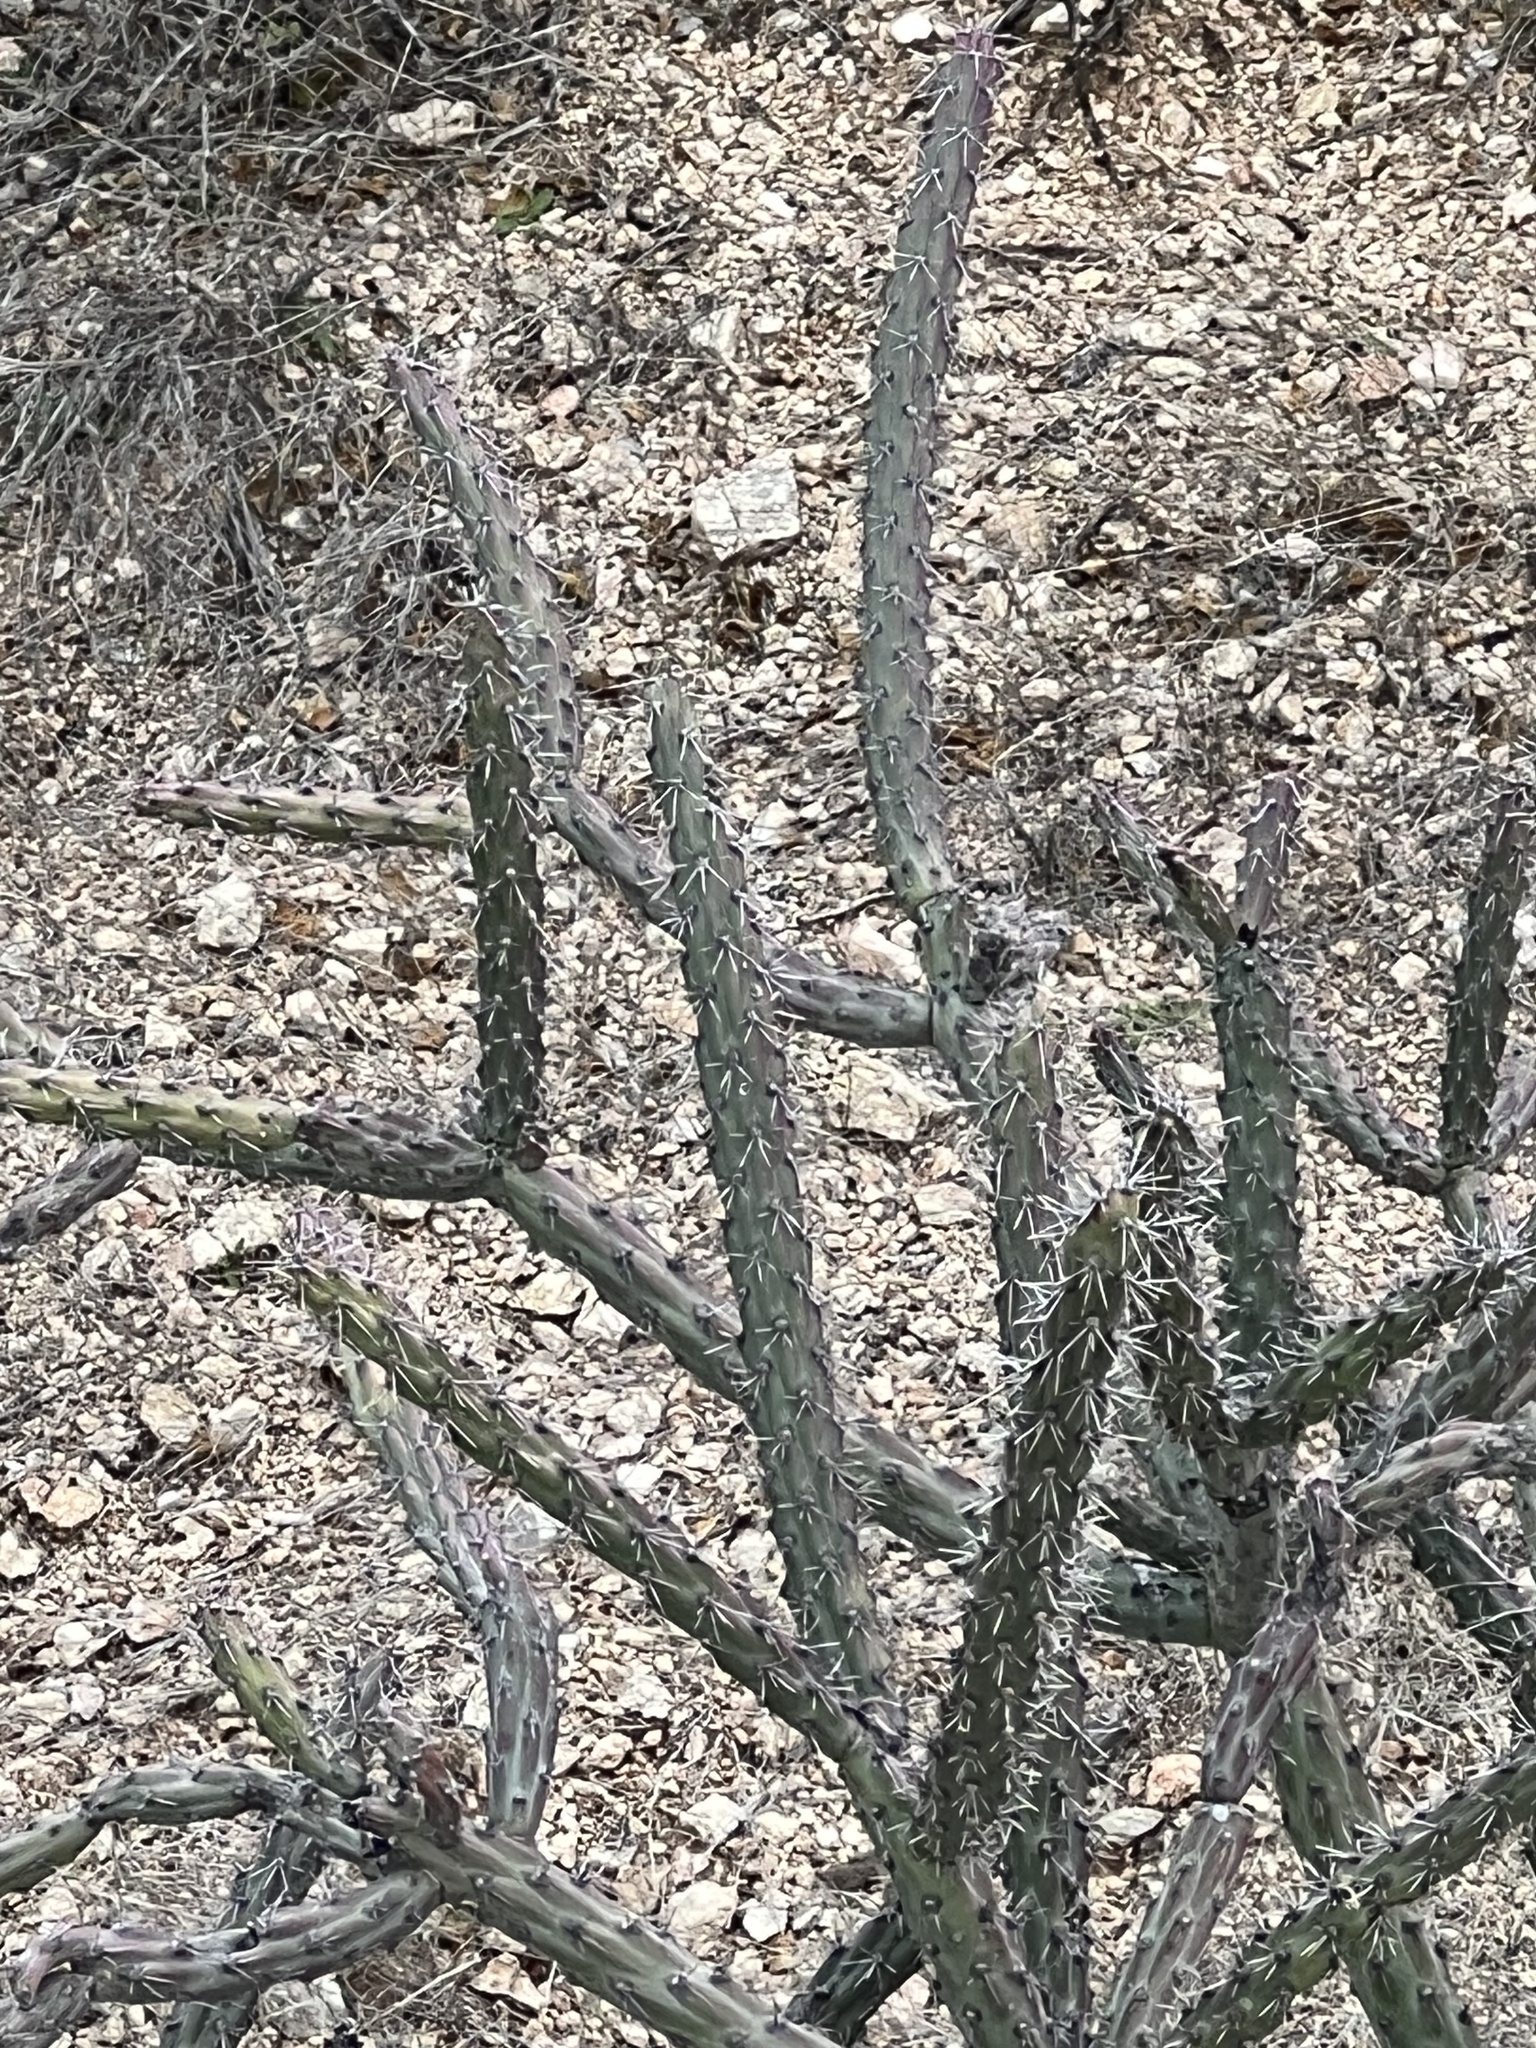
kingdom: Plantae
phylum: Tracheophyta
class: Magnoliopsida
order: Caryophyllales
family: Cactaceae
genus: Cylindropuntia
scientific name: Cylindropuntia thurberi
